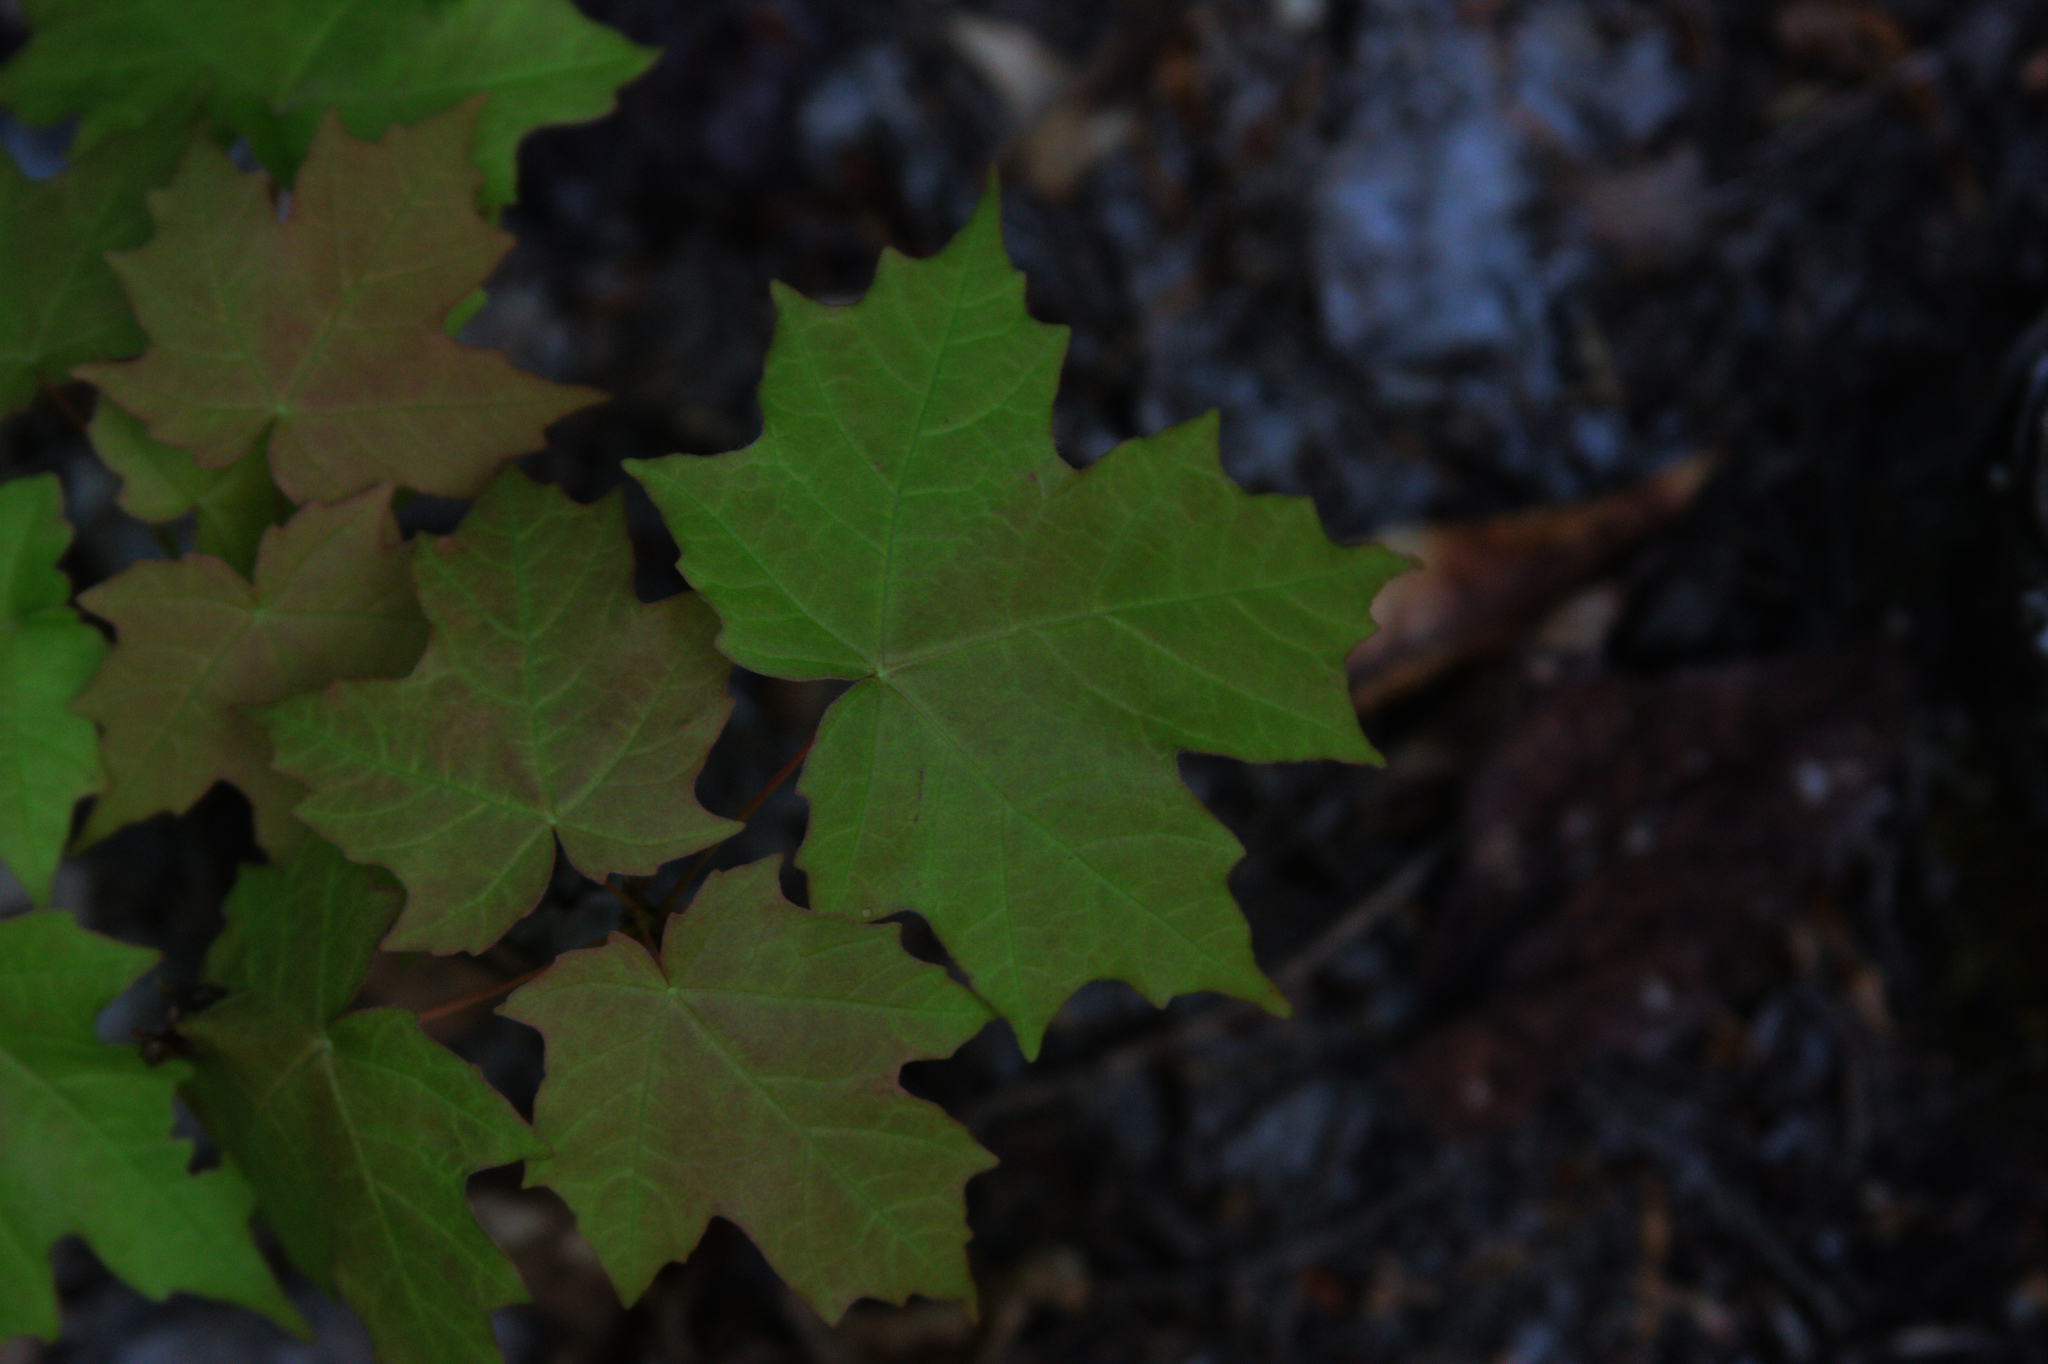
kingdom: Plantae
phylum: Tracheophyta
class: Magnoliopsida
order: Sapindales
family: Sapindaceae
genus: Acer
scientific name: Acer saccharum
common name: Sugar maple
